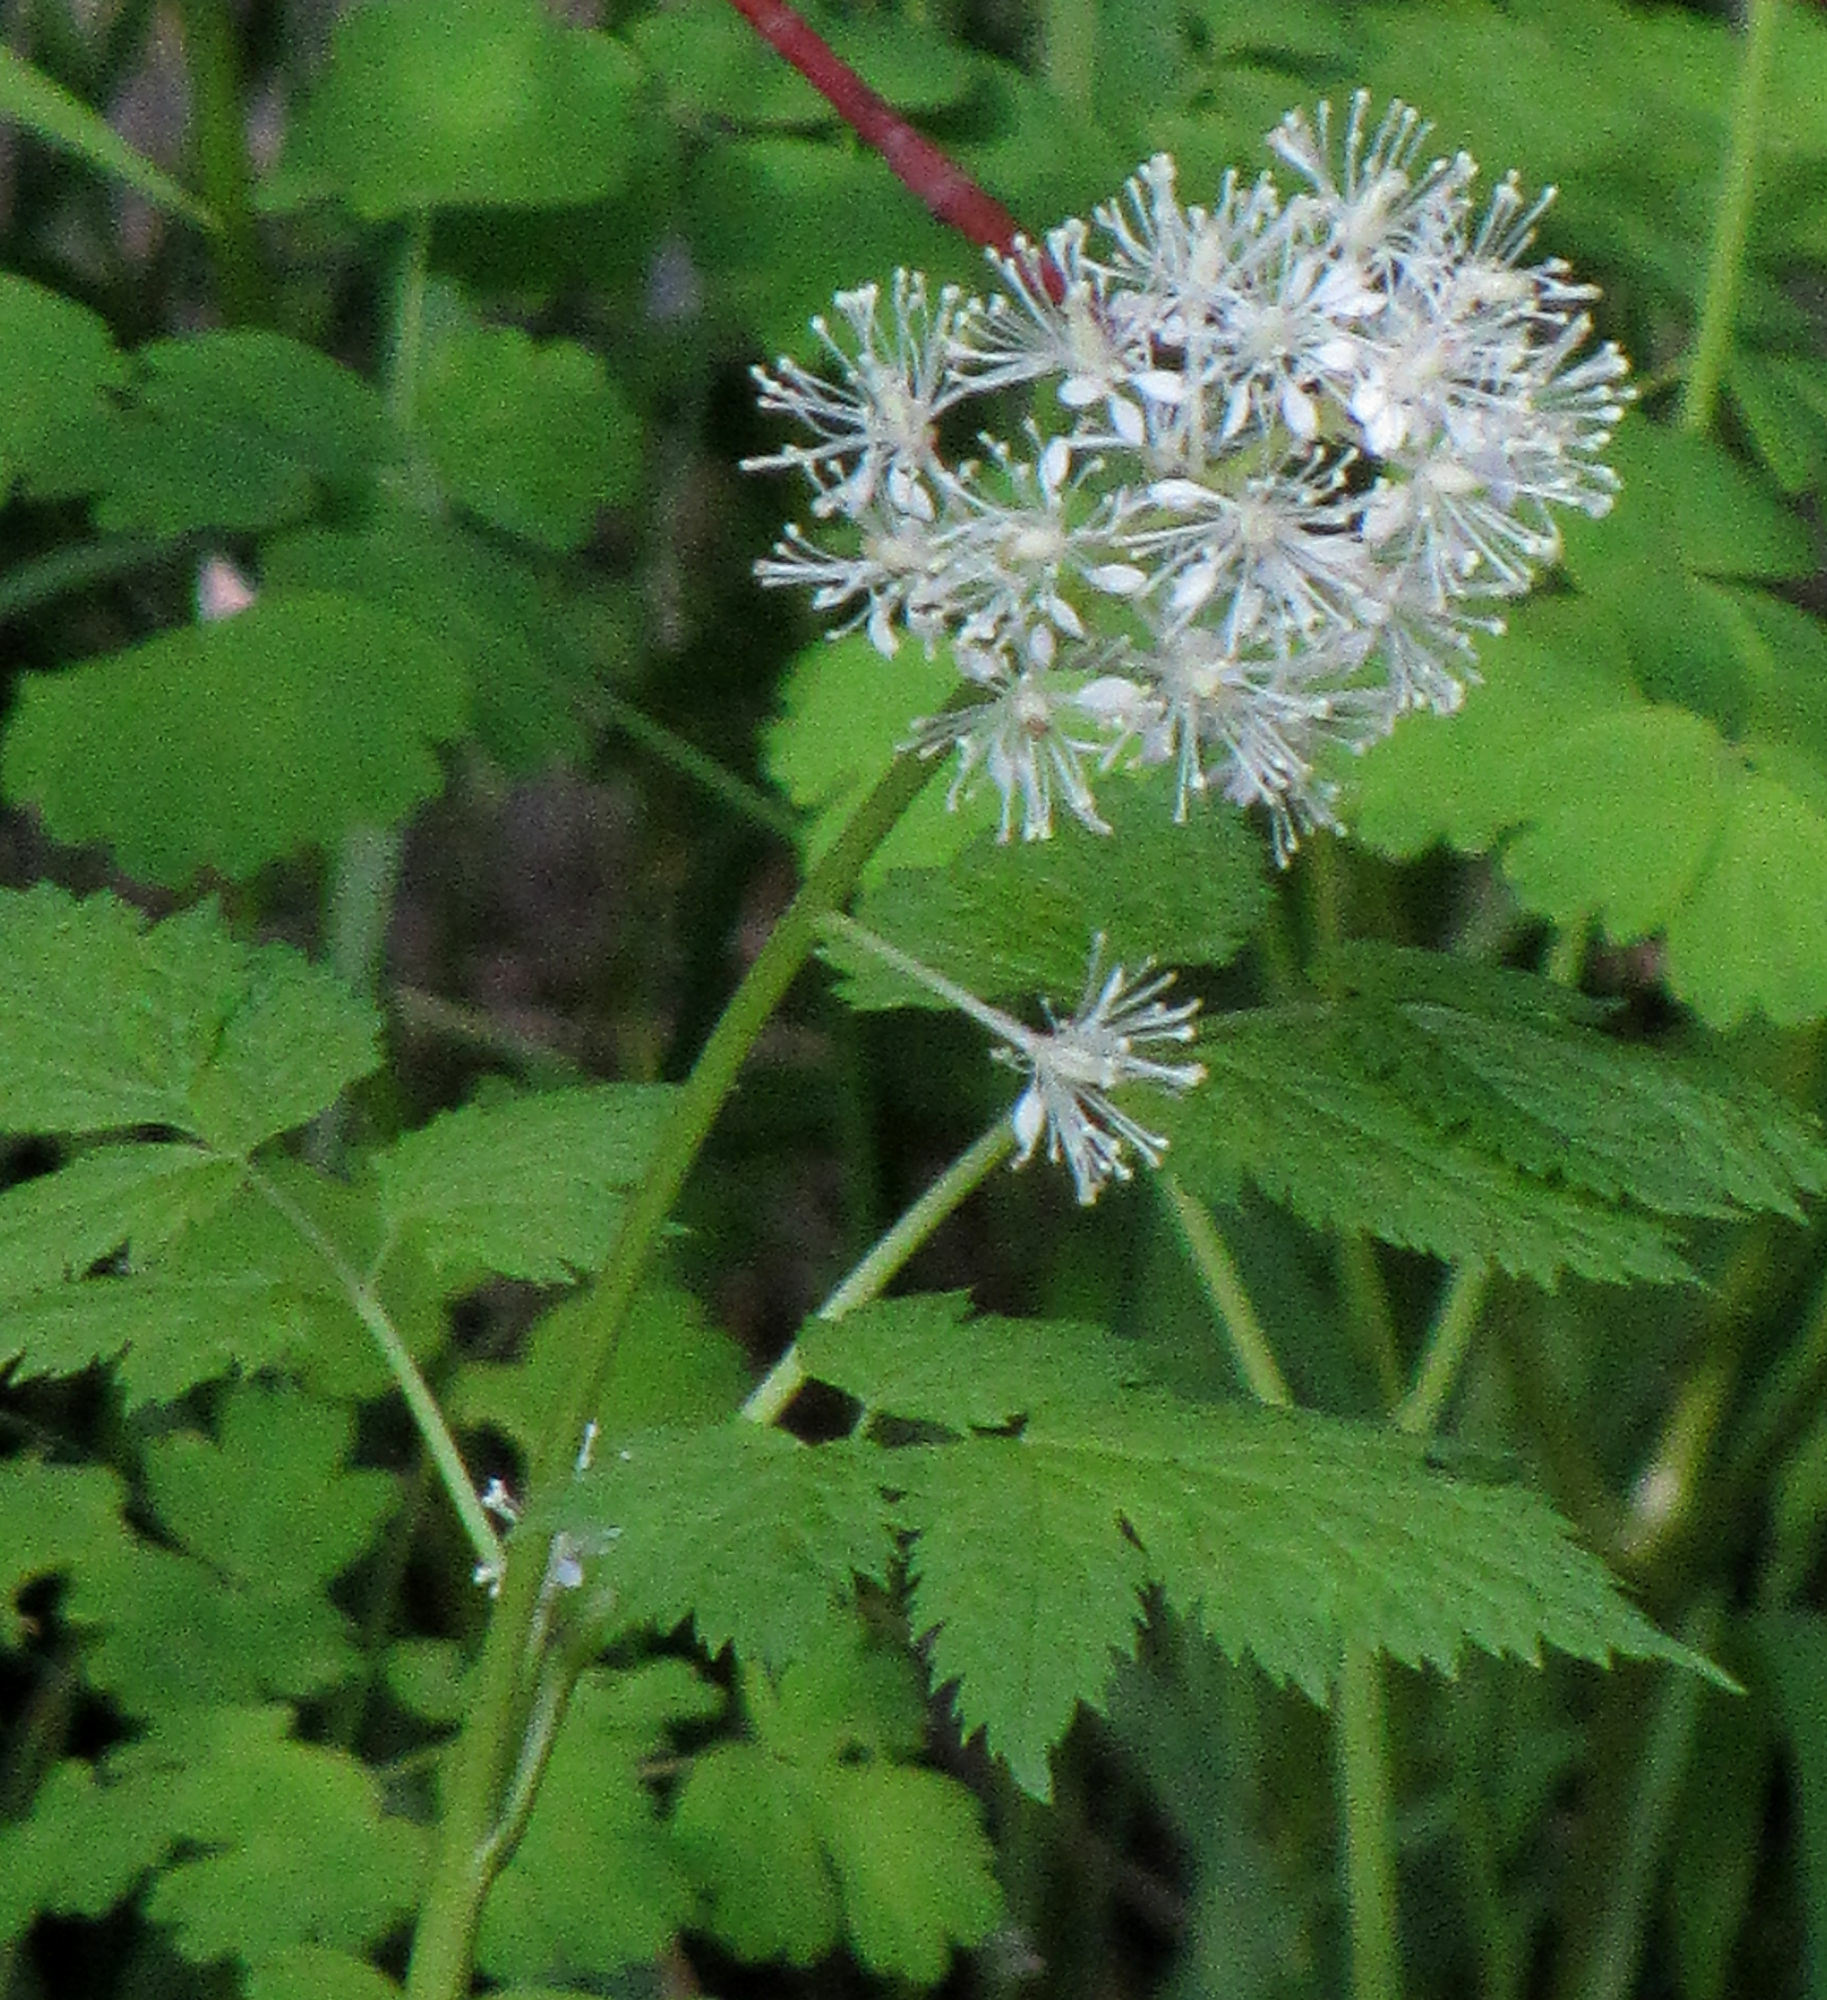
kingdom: Plantae
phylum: Tracheophyta
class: Magnoliopsida
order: Ranunculales
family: Ranunculaceae
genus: Actaea
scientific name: Actaea rubra
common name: Red baneberry
